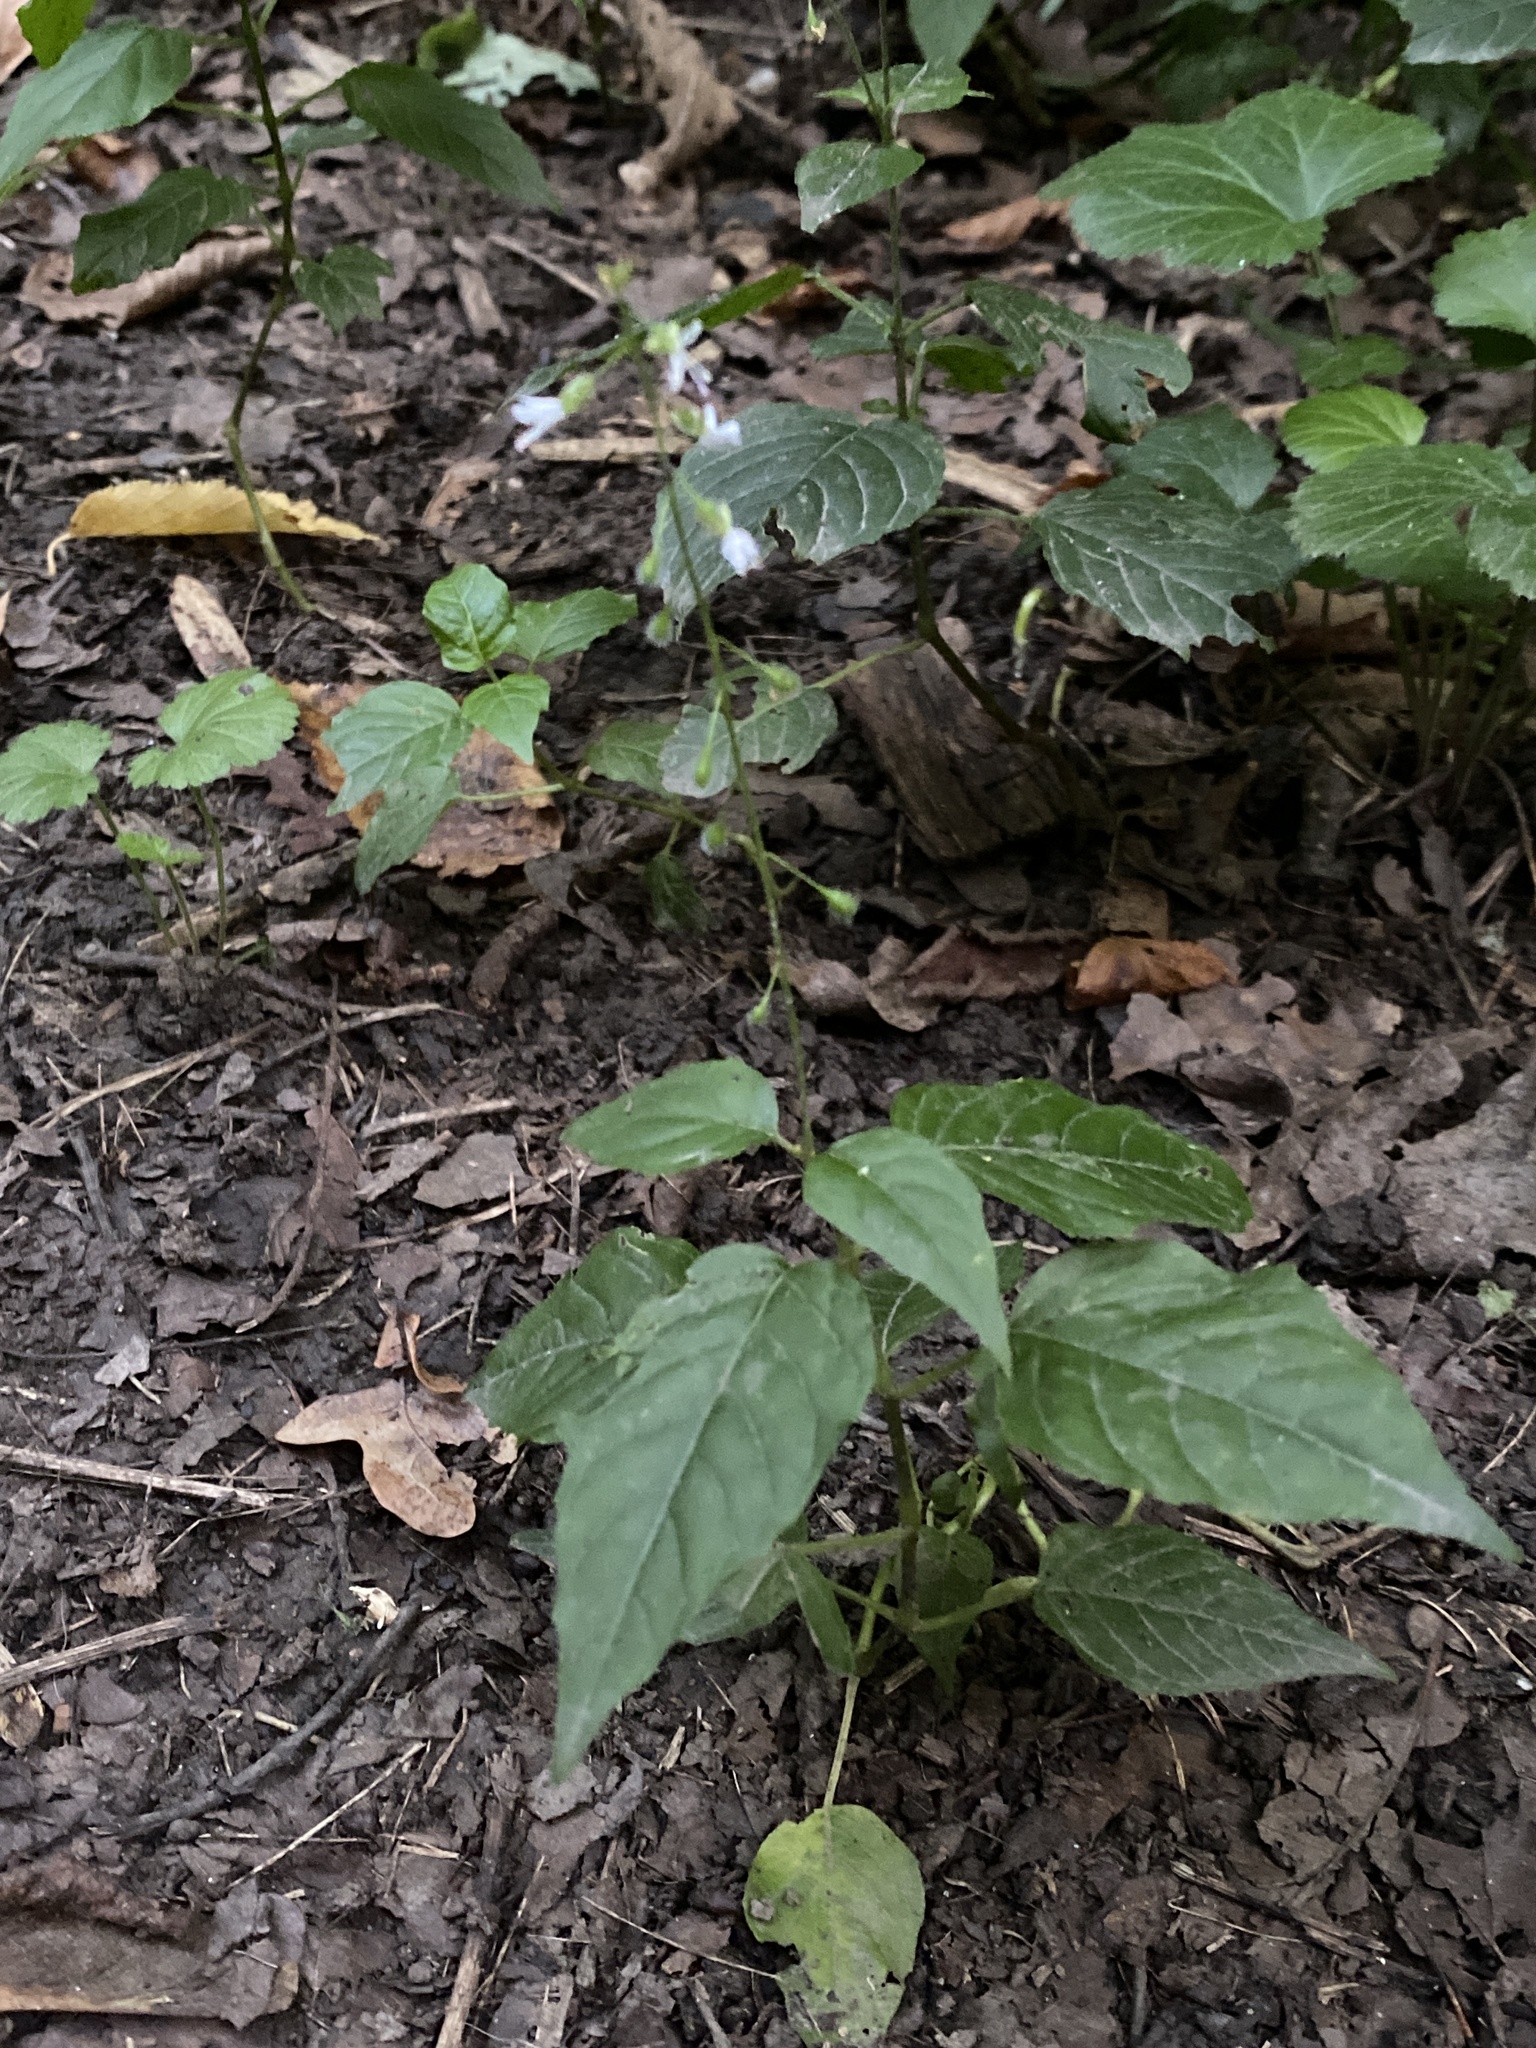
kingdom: Plantae
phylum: Tracheophyta
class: Magnoliopsida
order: Myrtales
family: Onagraceae
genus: Circaea
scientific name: Circaea lutetiana
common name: Enchanter's-nightshade
